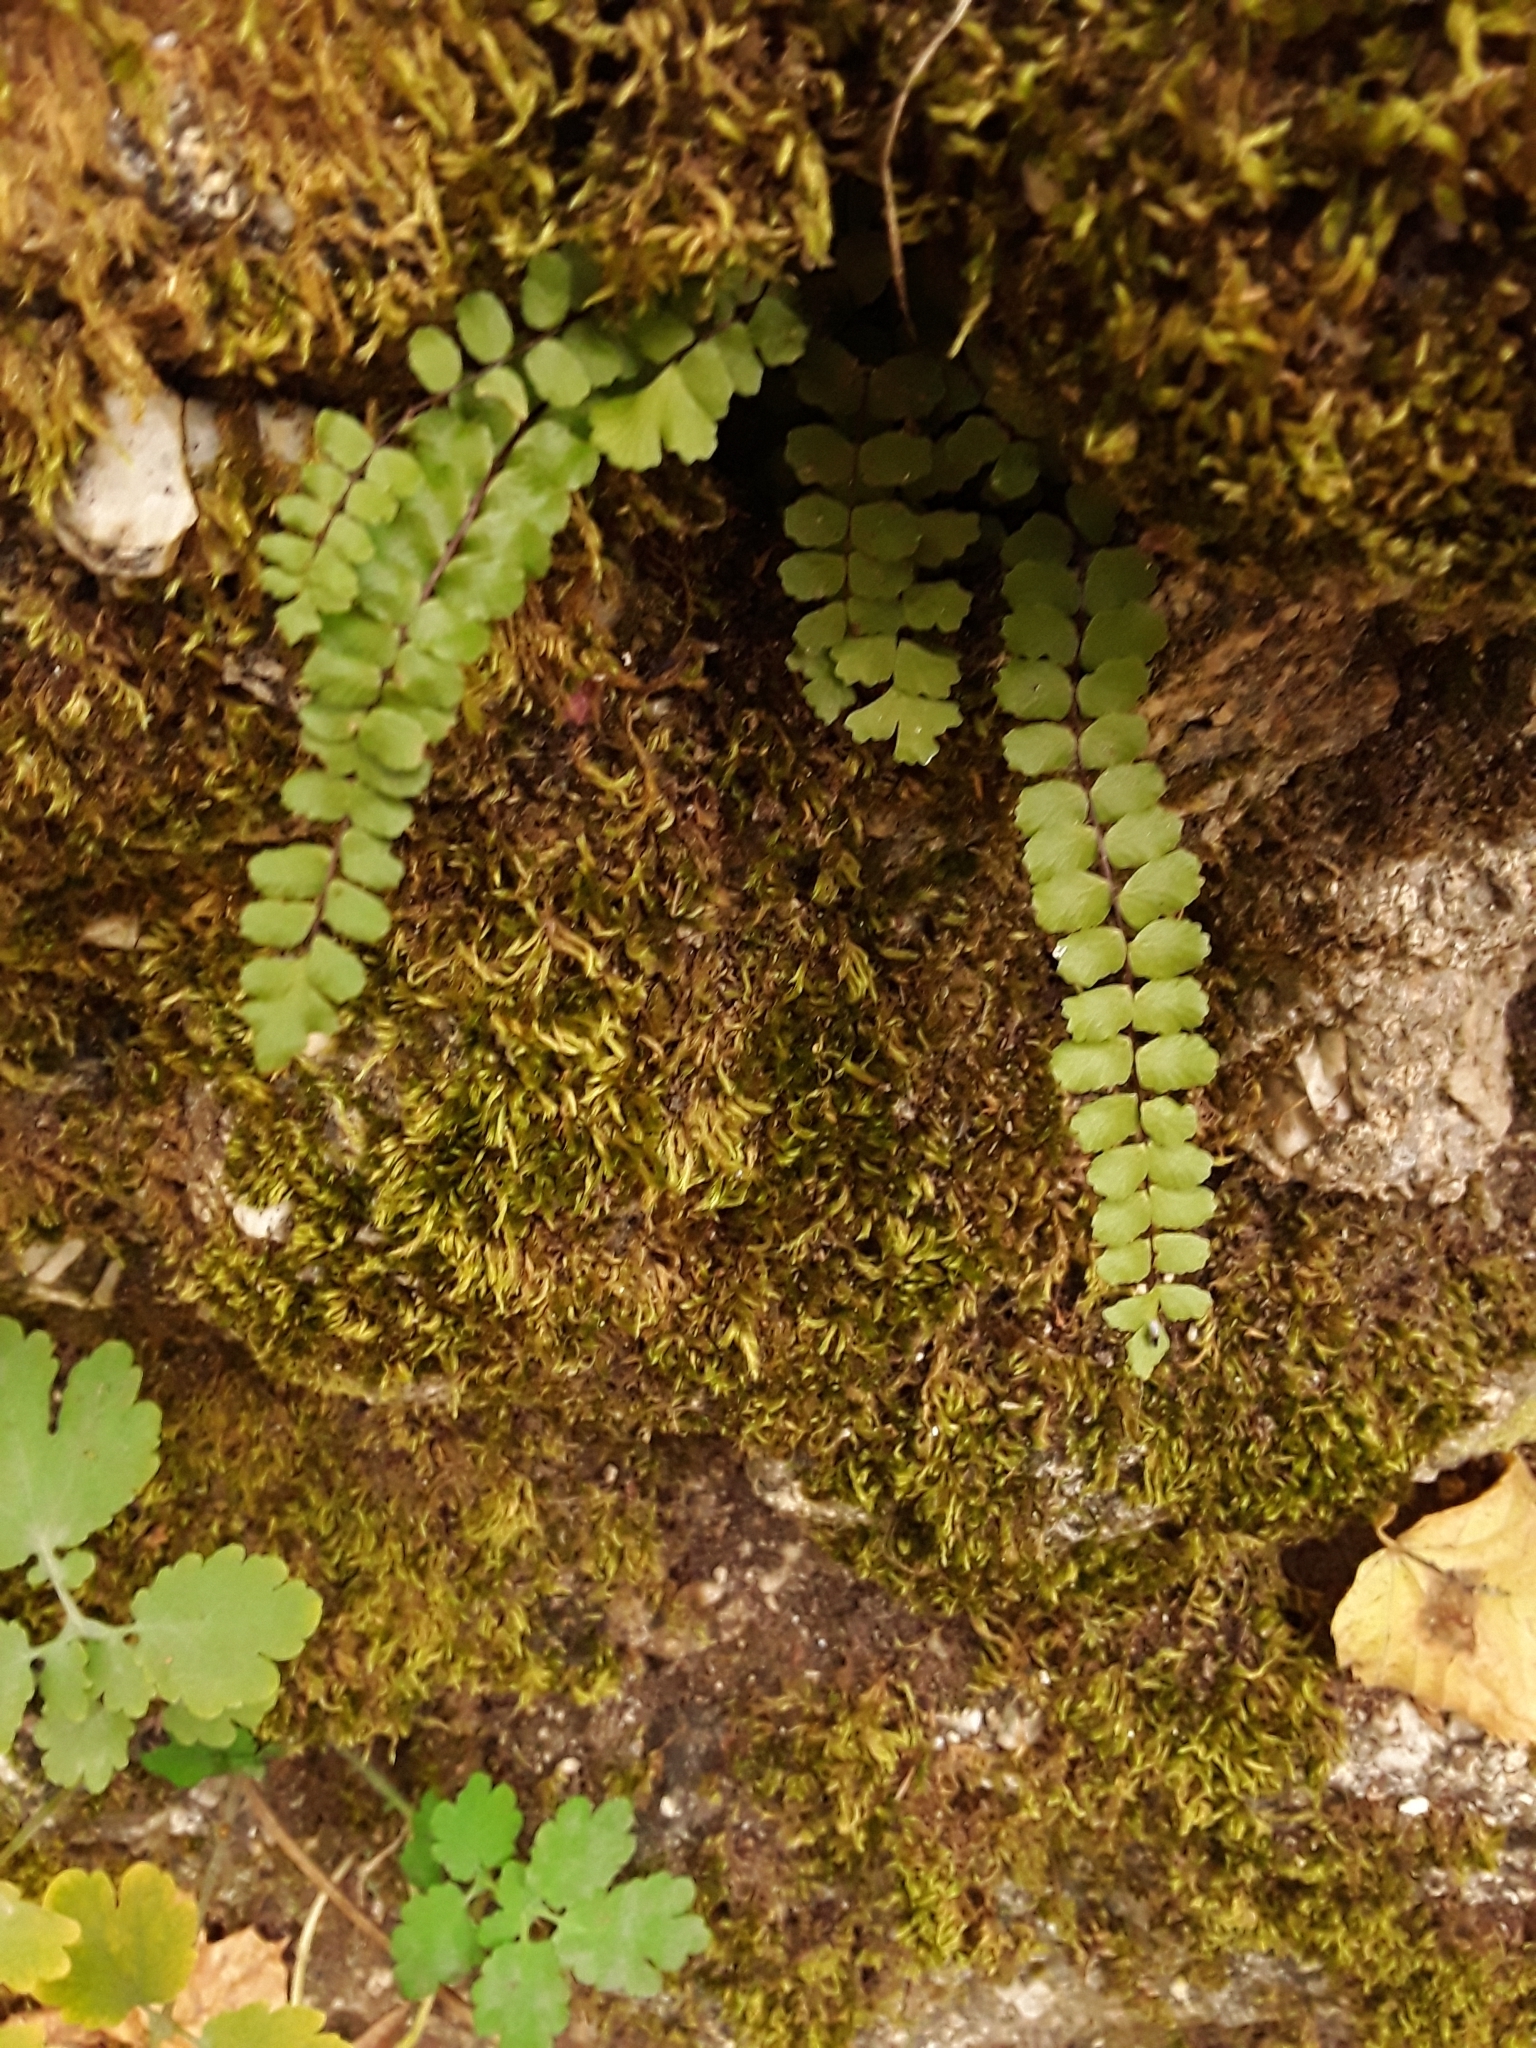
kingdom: Plantae
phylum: Tracheophyta
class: Polypodiopsida
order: Polypodiales
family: Aspleniaceae
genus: Asplenium
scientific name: Asplenium trichomanes
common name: Maidenhair spleenwort
